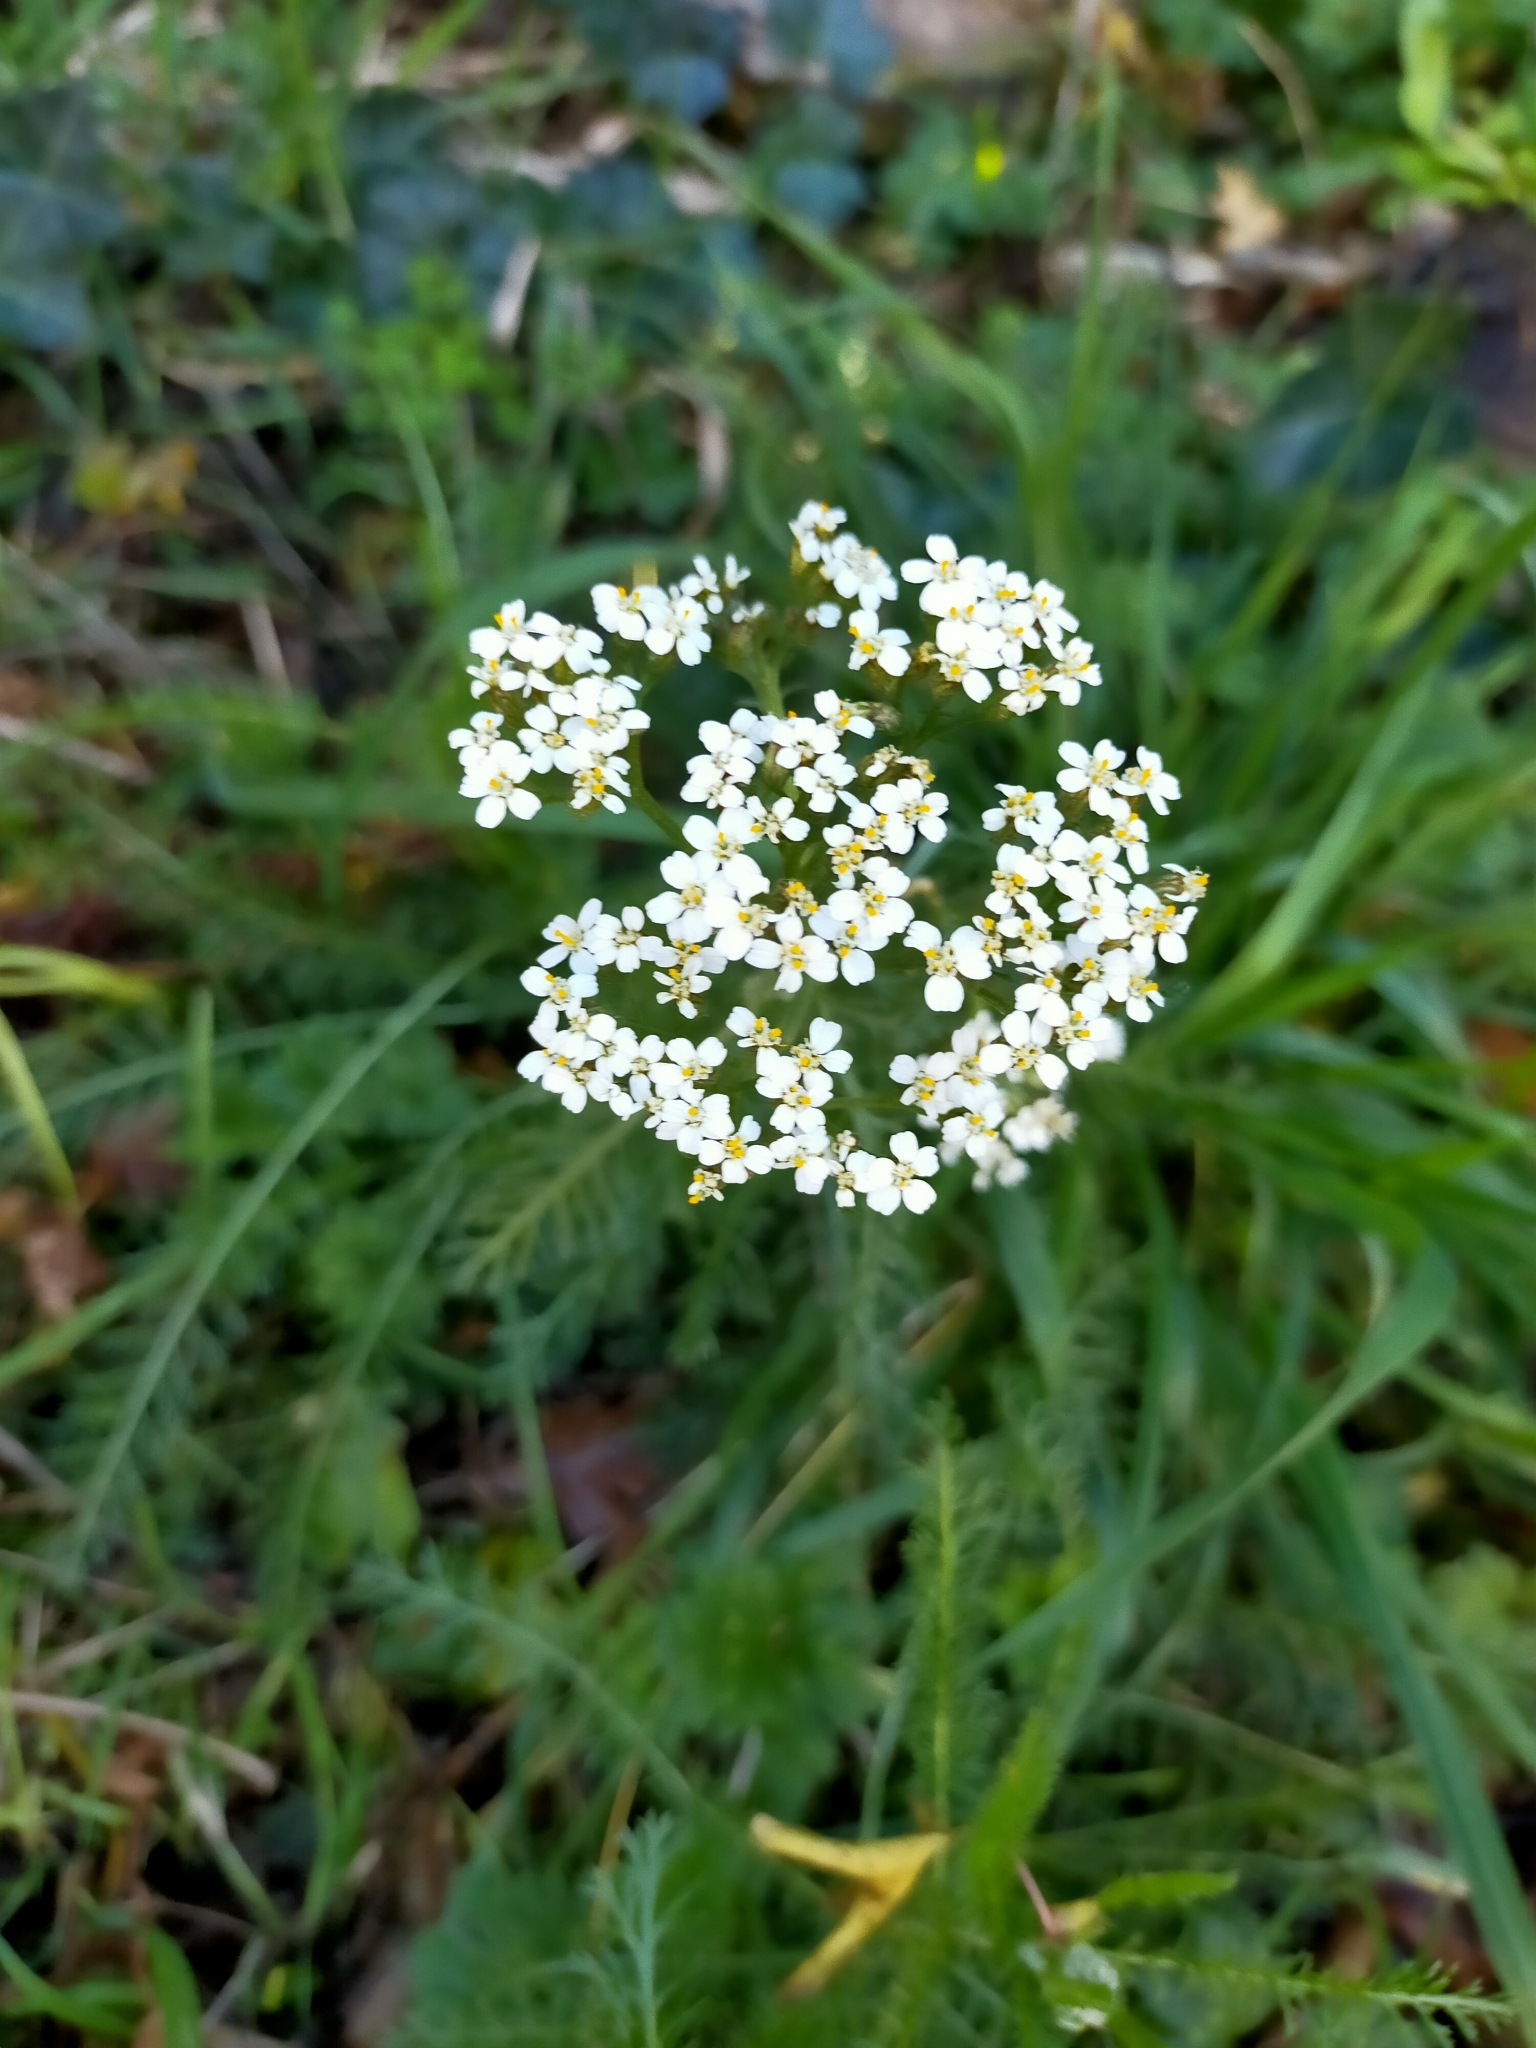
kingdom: Plantae
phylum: Tracheophyta
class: Magnoliopsida
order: Asterales
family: Asteraceae
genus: Achillea
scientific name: Achillea millefolium
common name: Yarrow
